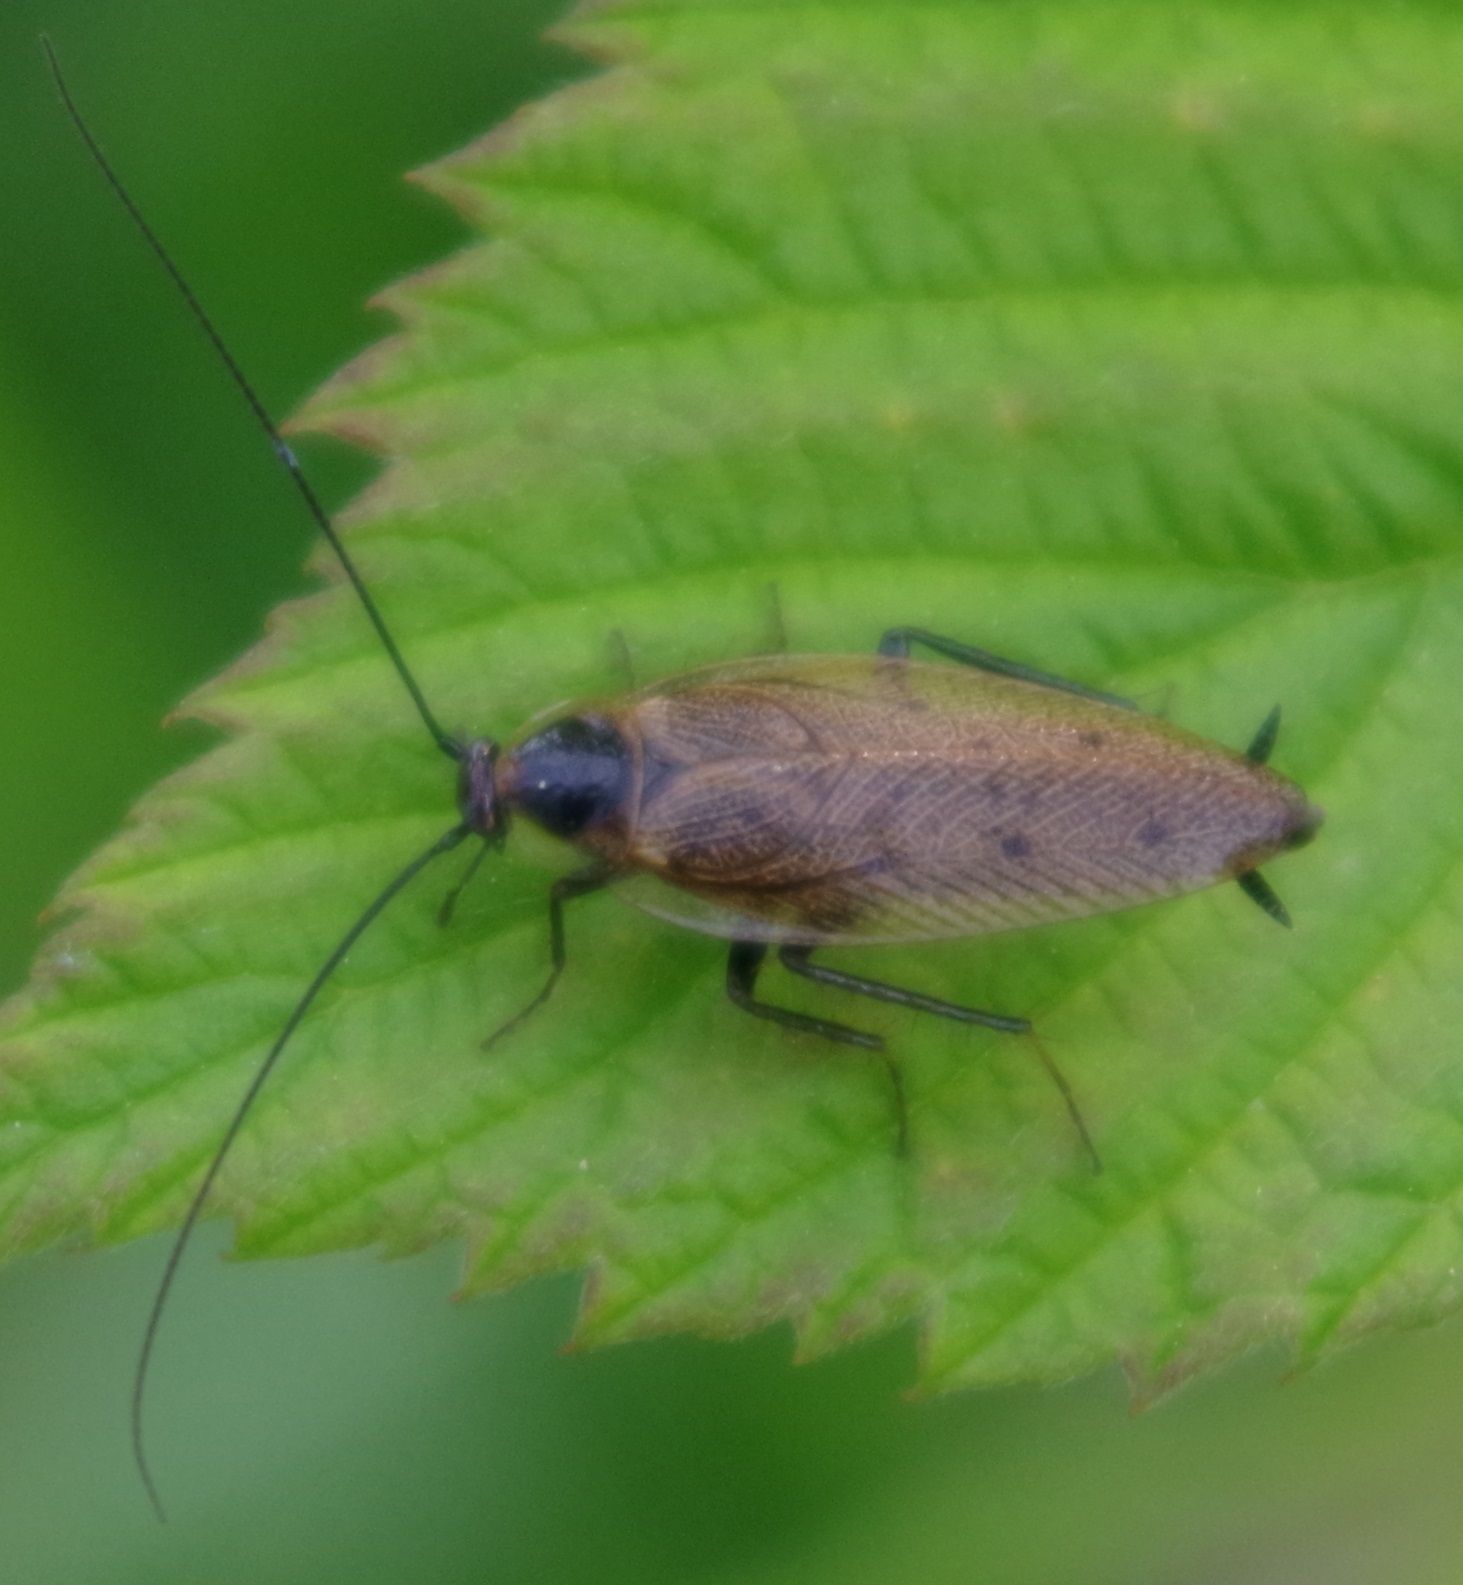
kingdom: Animalia
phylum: Arthropoda
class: Insecta
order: Blattodea
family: Ectobiidae
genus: Ectobius
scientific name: Ectobius lapponicus
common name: Dusky cockroach
